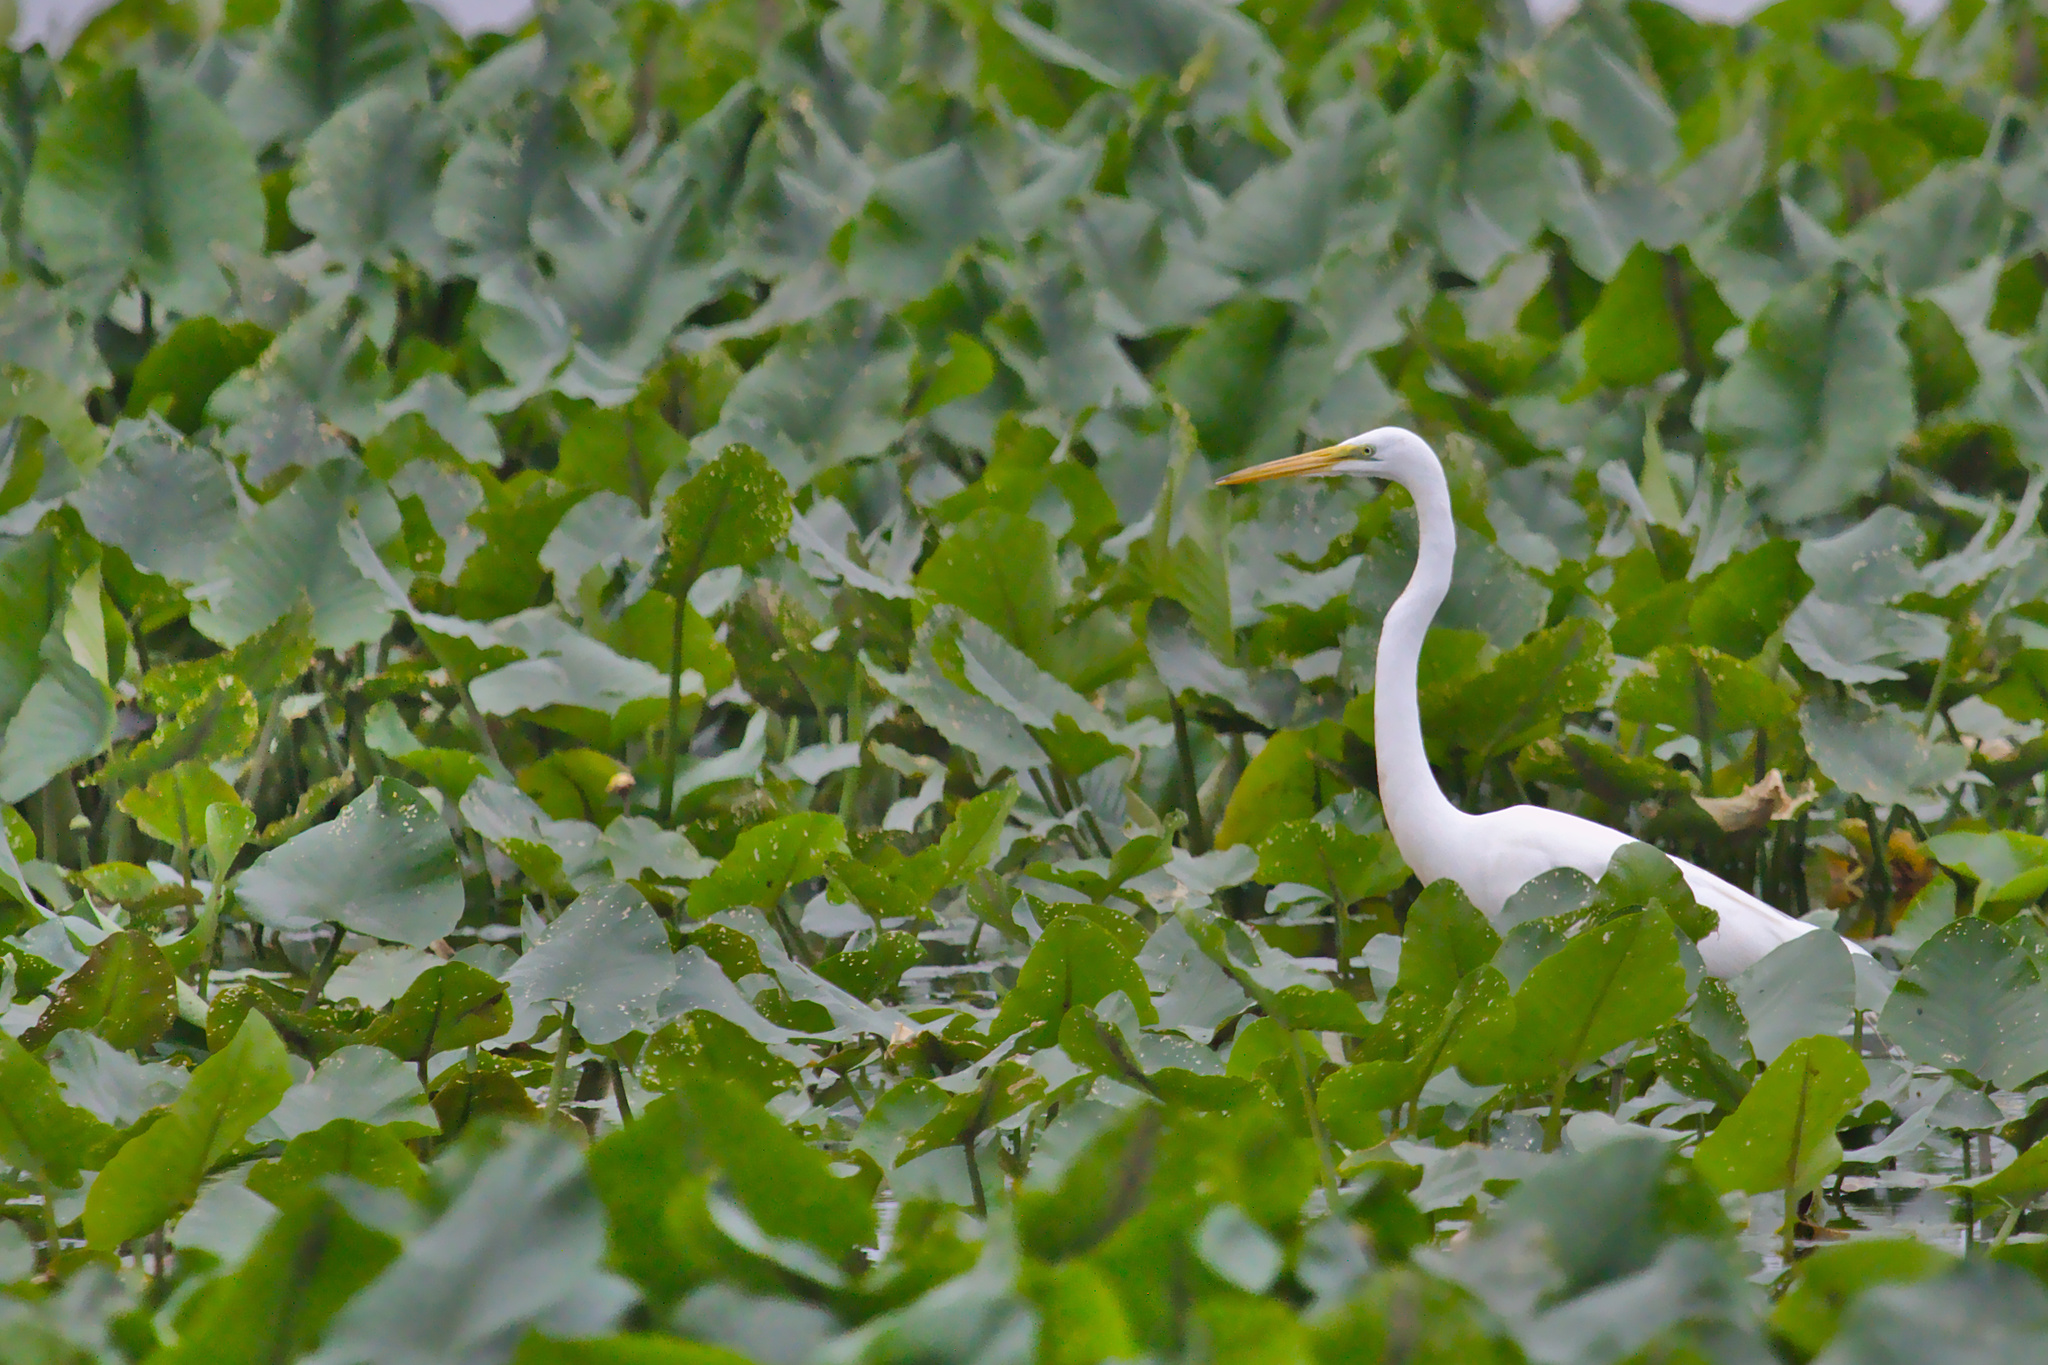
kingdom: Animalia
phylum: Chordata
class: Aves
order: Pelecaniformes
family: Ardeidae
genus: Ardea
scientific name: Ardea alba
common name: Great egret
